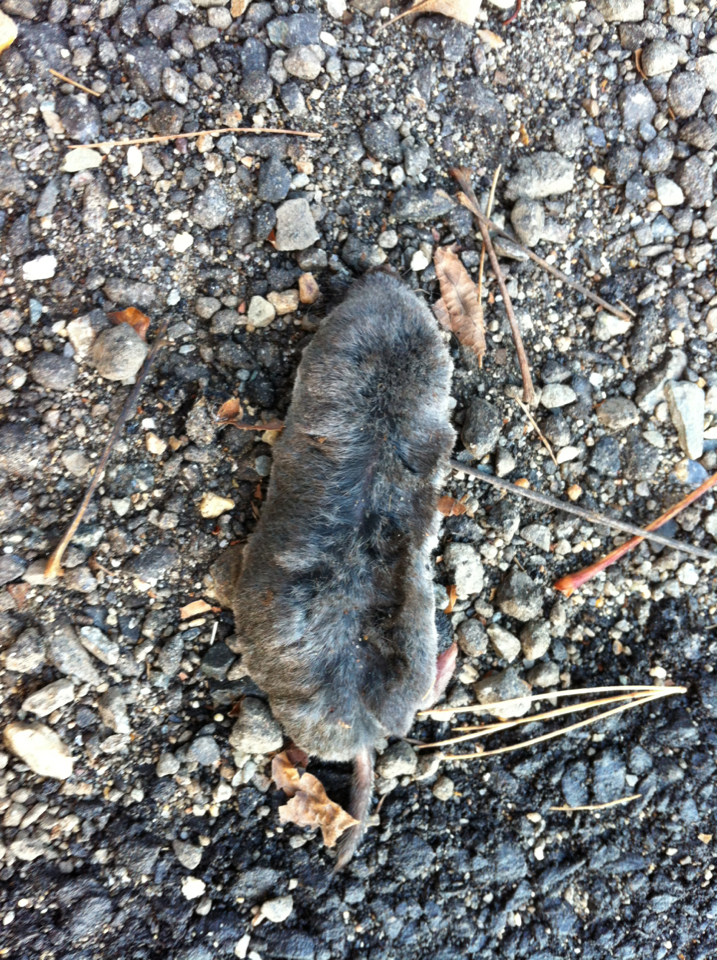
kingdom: Animalia
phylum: Chordata
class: Mammalia
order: Soricomorpha
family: Soricidae
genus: Blarina
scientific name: Blarina brevicauda
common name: Northern short-tailed shrew
